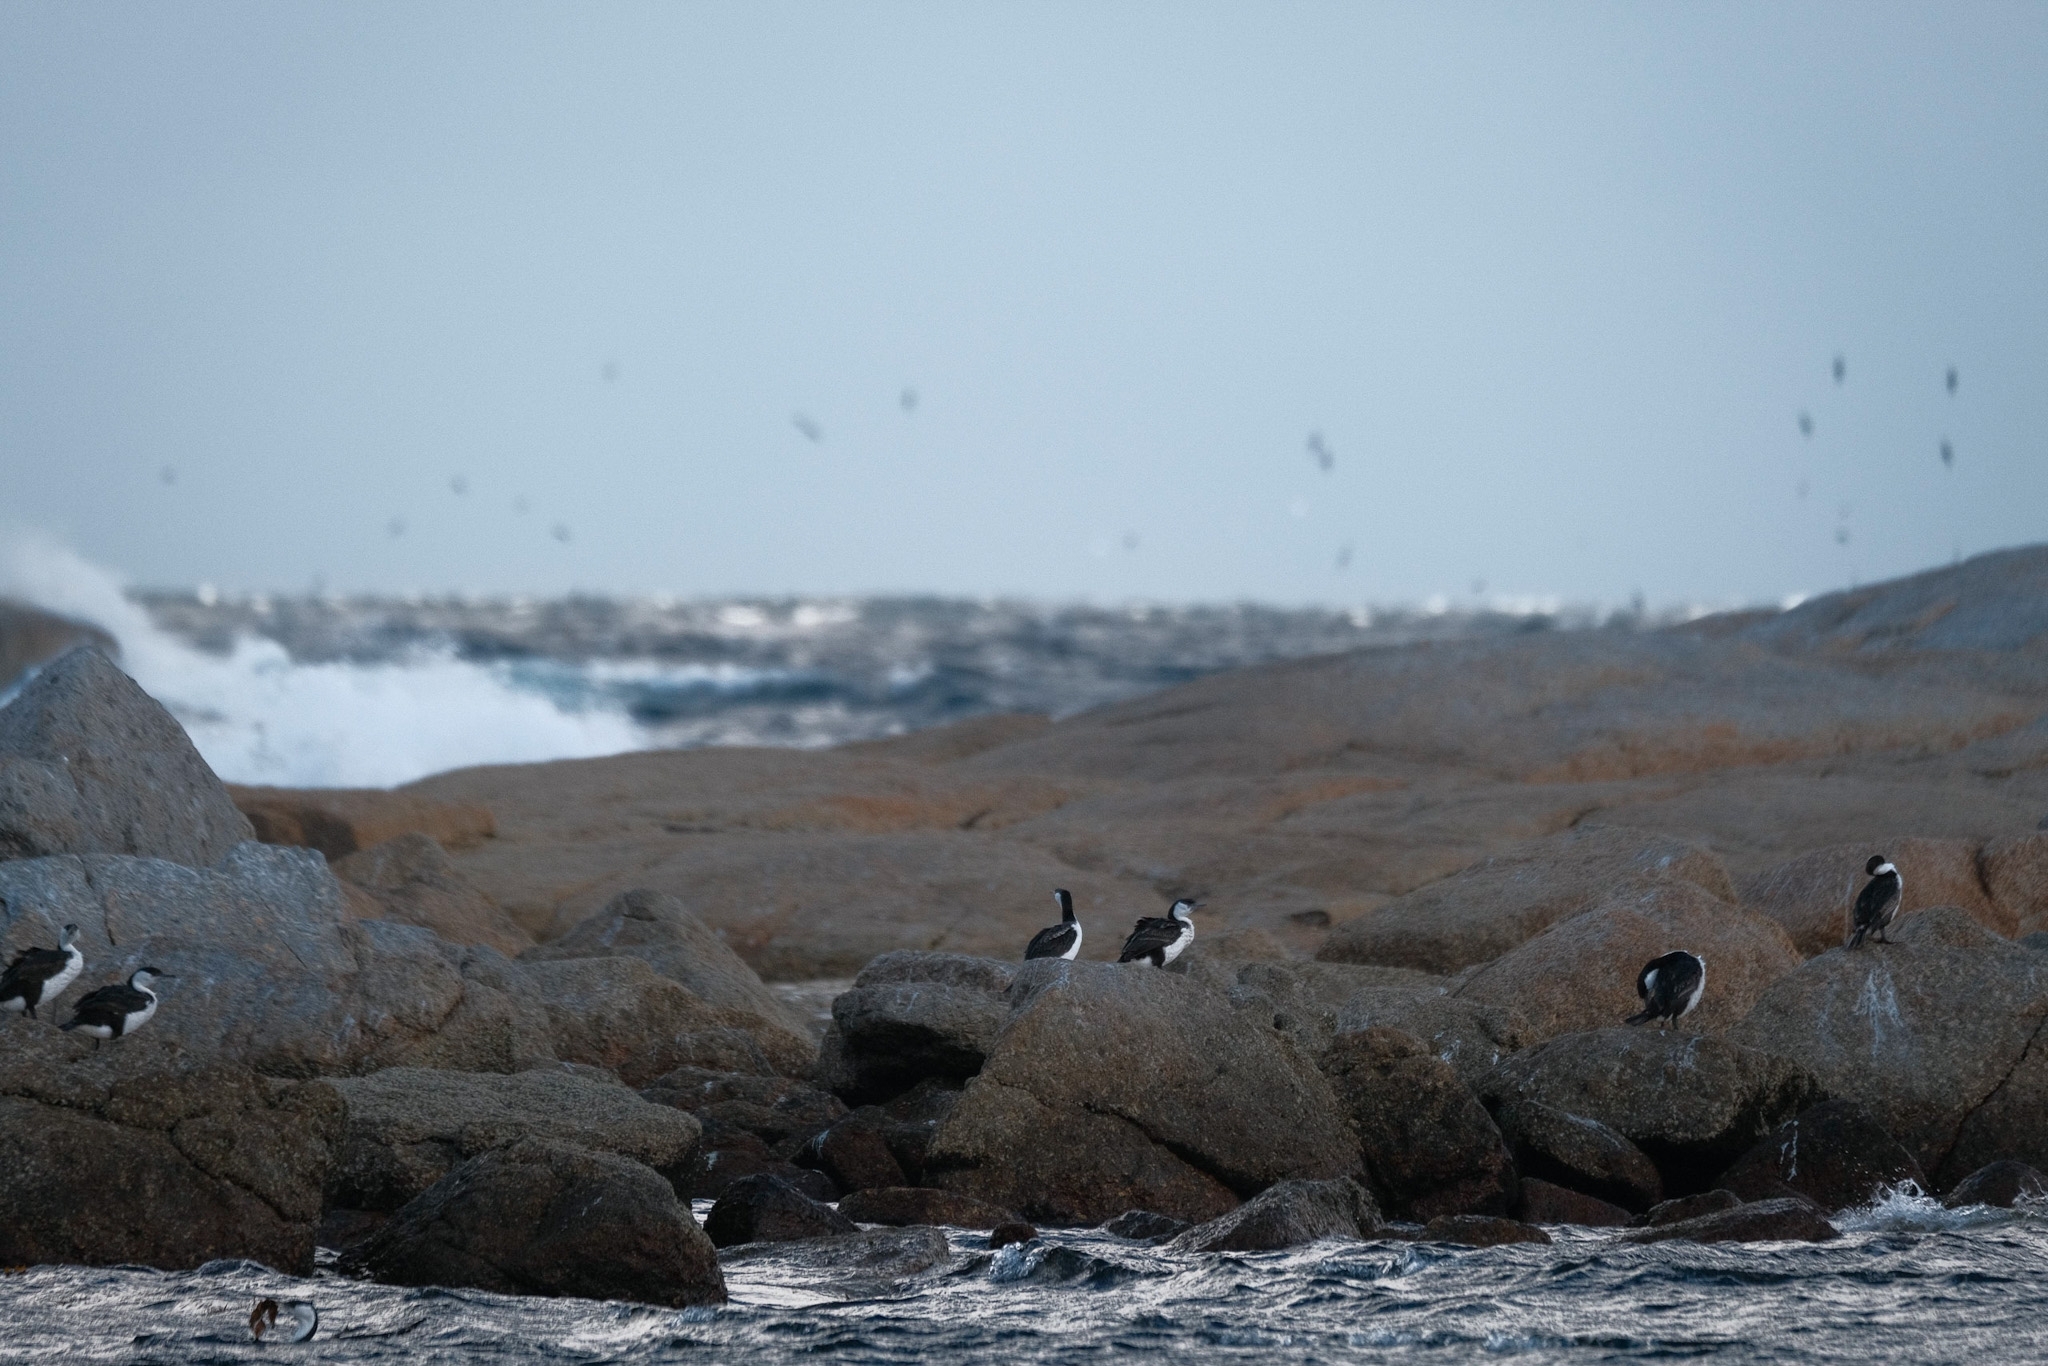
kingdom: Animalia
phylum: Chordata
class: Aves
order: Suliformes
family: Phalacrocoracidae
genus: Phalacrocorax
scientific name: Phalacrocorax fuscescens
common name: Black-faced cormorant
